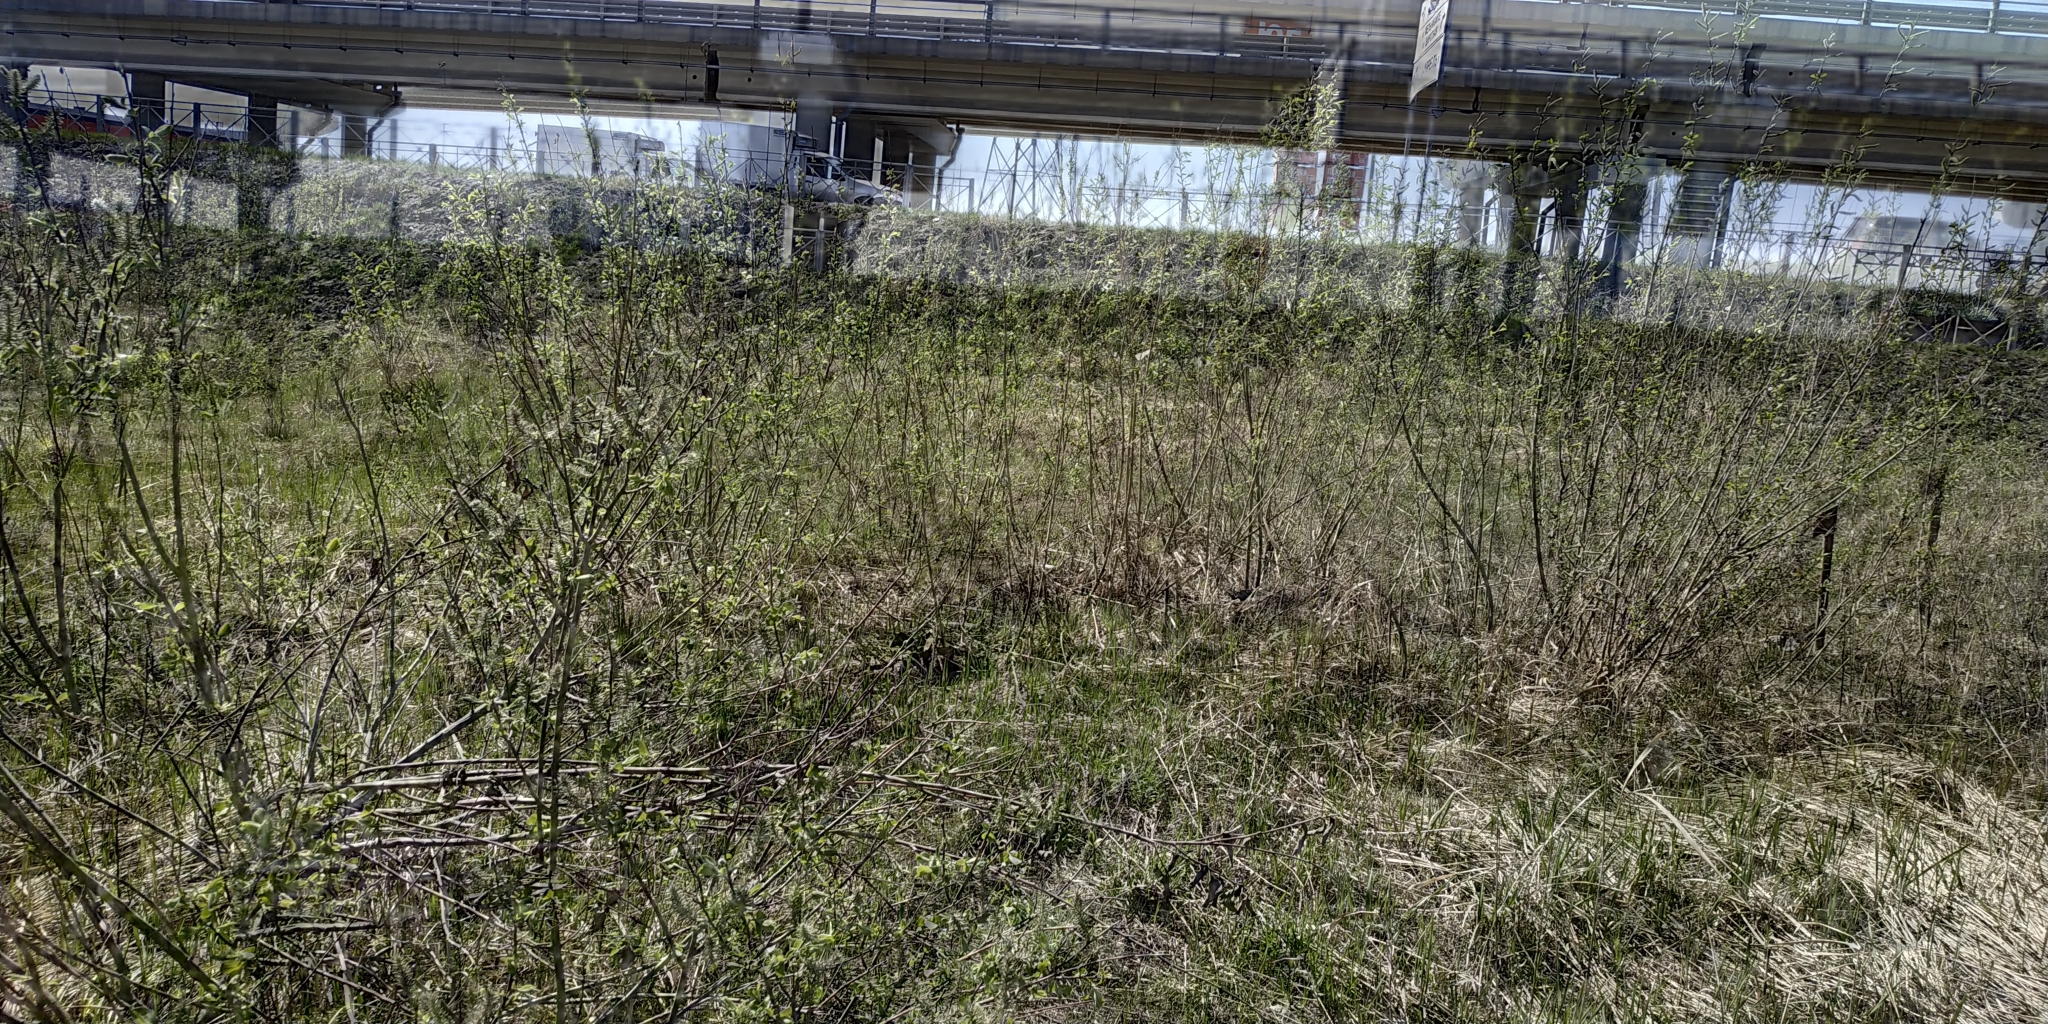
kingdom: Plantae
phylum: Tracheophyta
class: Magnoliopsida
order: Malpighiales
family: Salicaceae
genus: Salix
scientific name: Salix cinerea
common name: Common sallow
